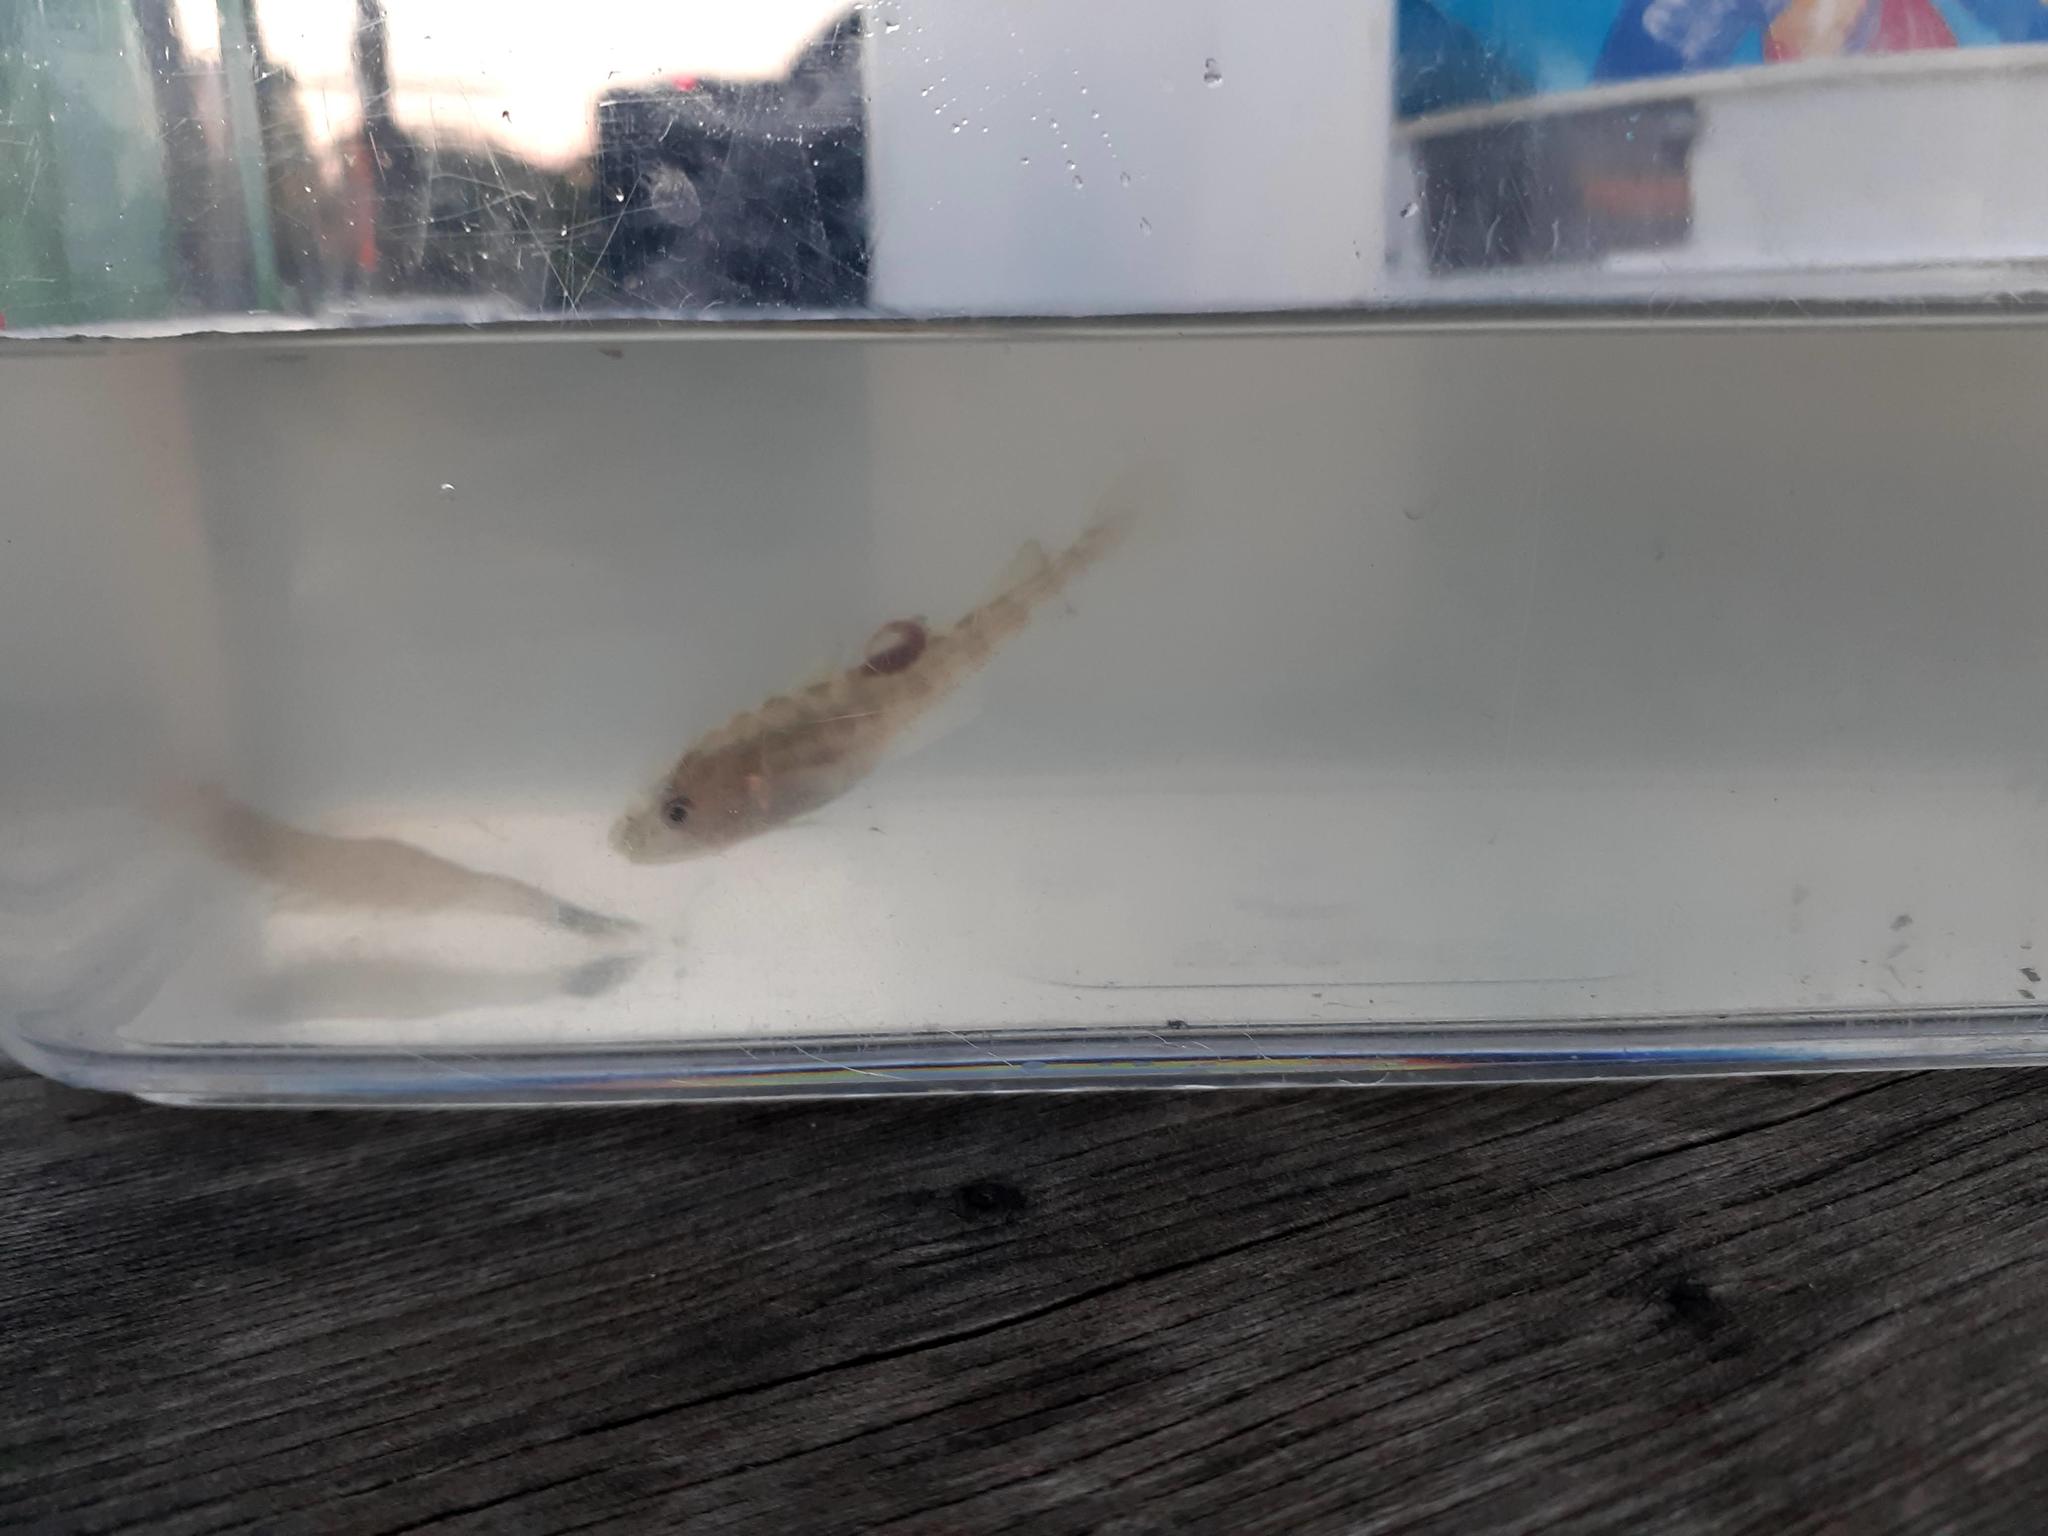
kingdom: Animalia
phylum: Chordata
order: Gadiformes
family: Gadidae
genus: Microgadus
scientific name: Microgadus tomcod
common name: Atlantic tomcod
